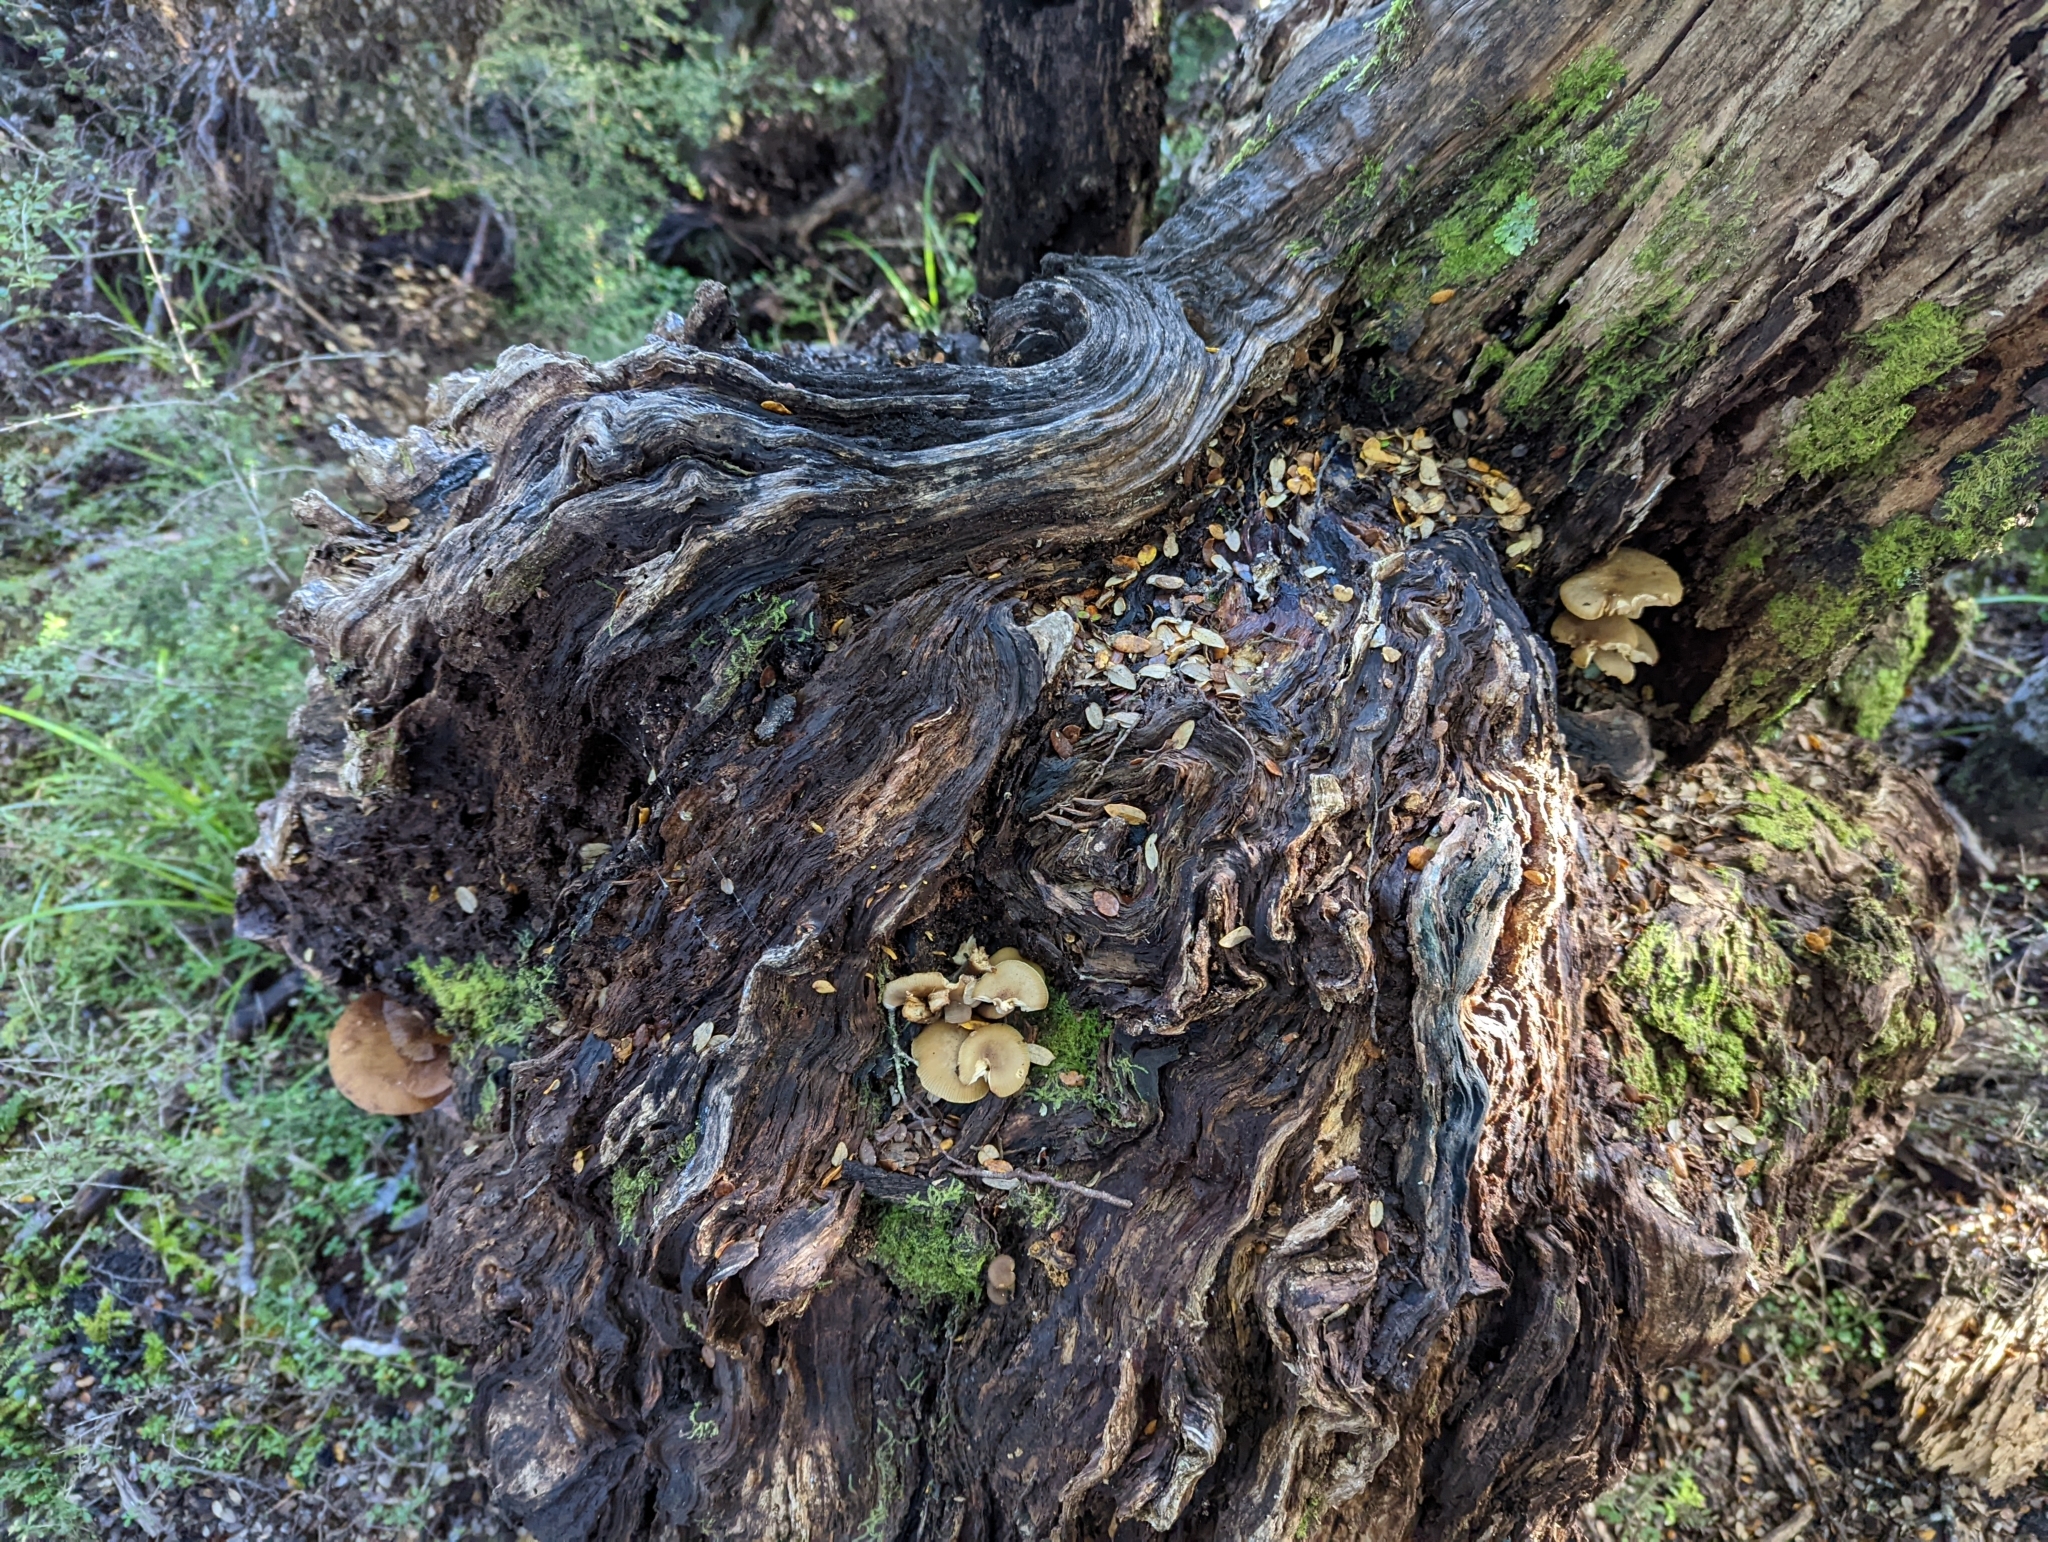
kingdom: Fungi
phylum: Basidiomycota
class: Agaricomycetes
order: Agaricales
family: Physalacriaceae
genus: Armillaria
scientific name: Armillaria novae-zelandiae
